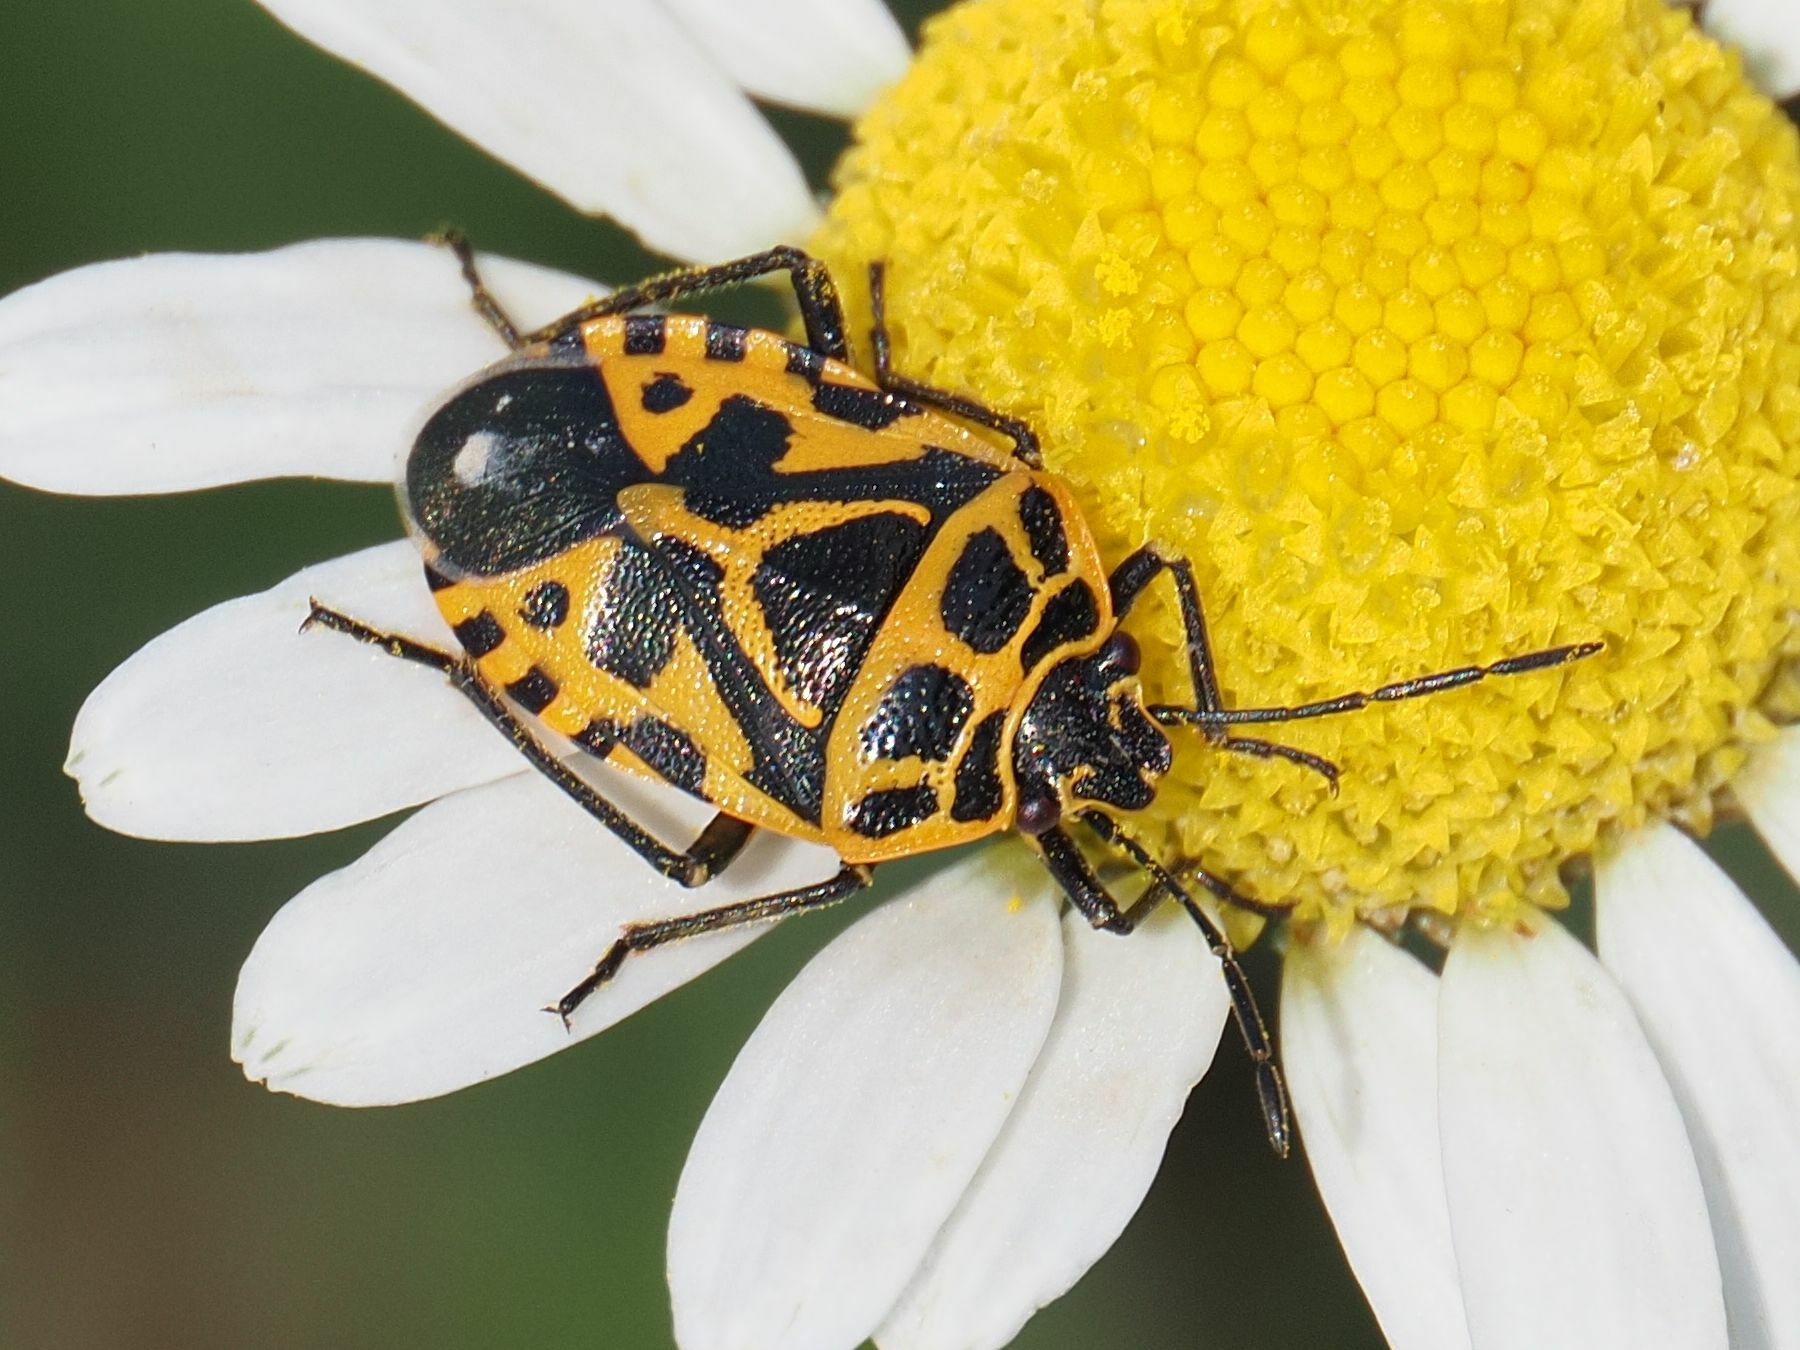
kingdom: Animalia
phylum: Arthropoda
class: Insecta
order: Hemiptera
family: Pentatomidae
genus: Eurydema
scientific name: Eurydema ventralis
